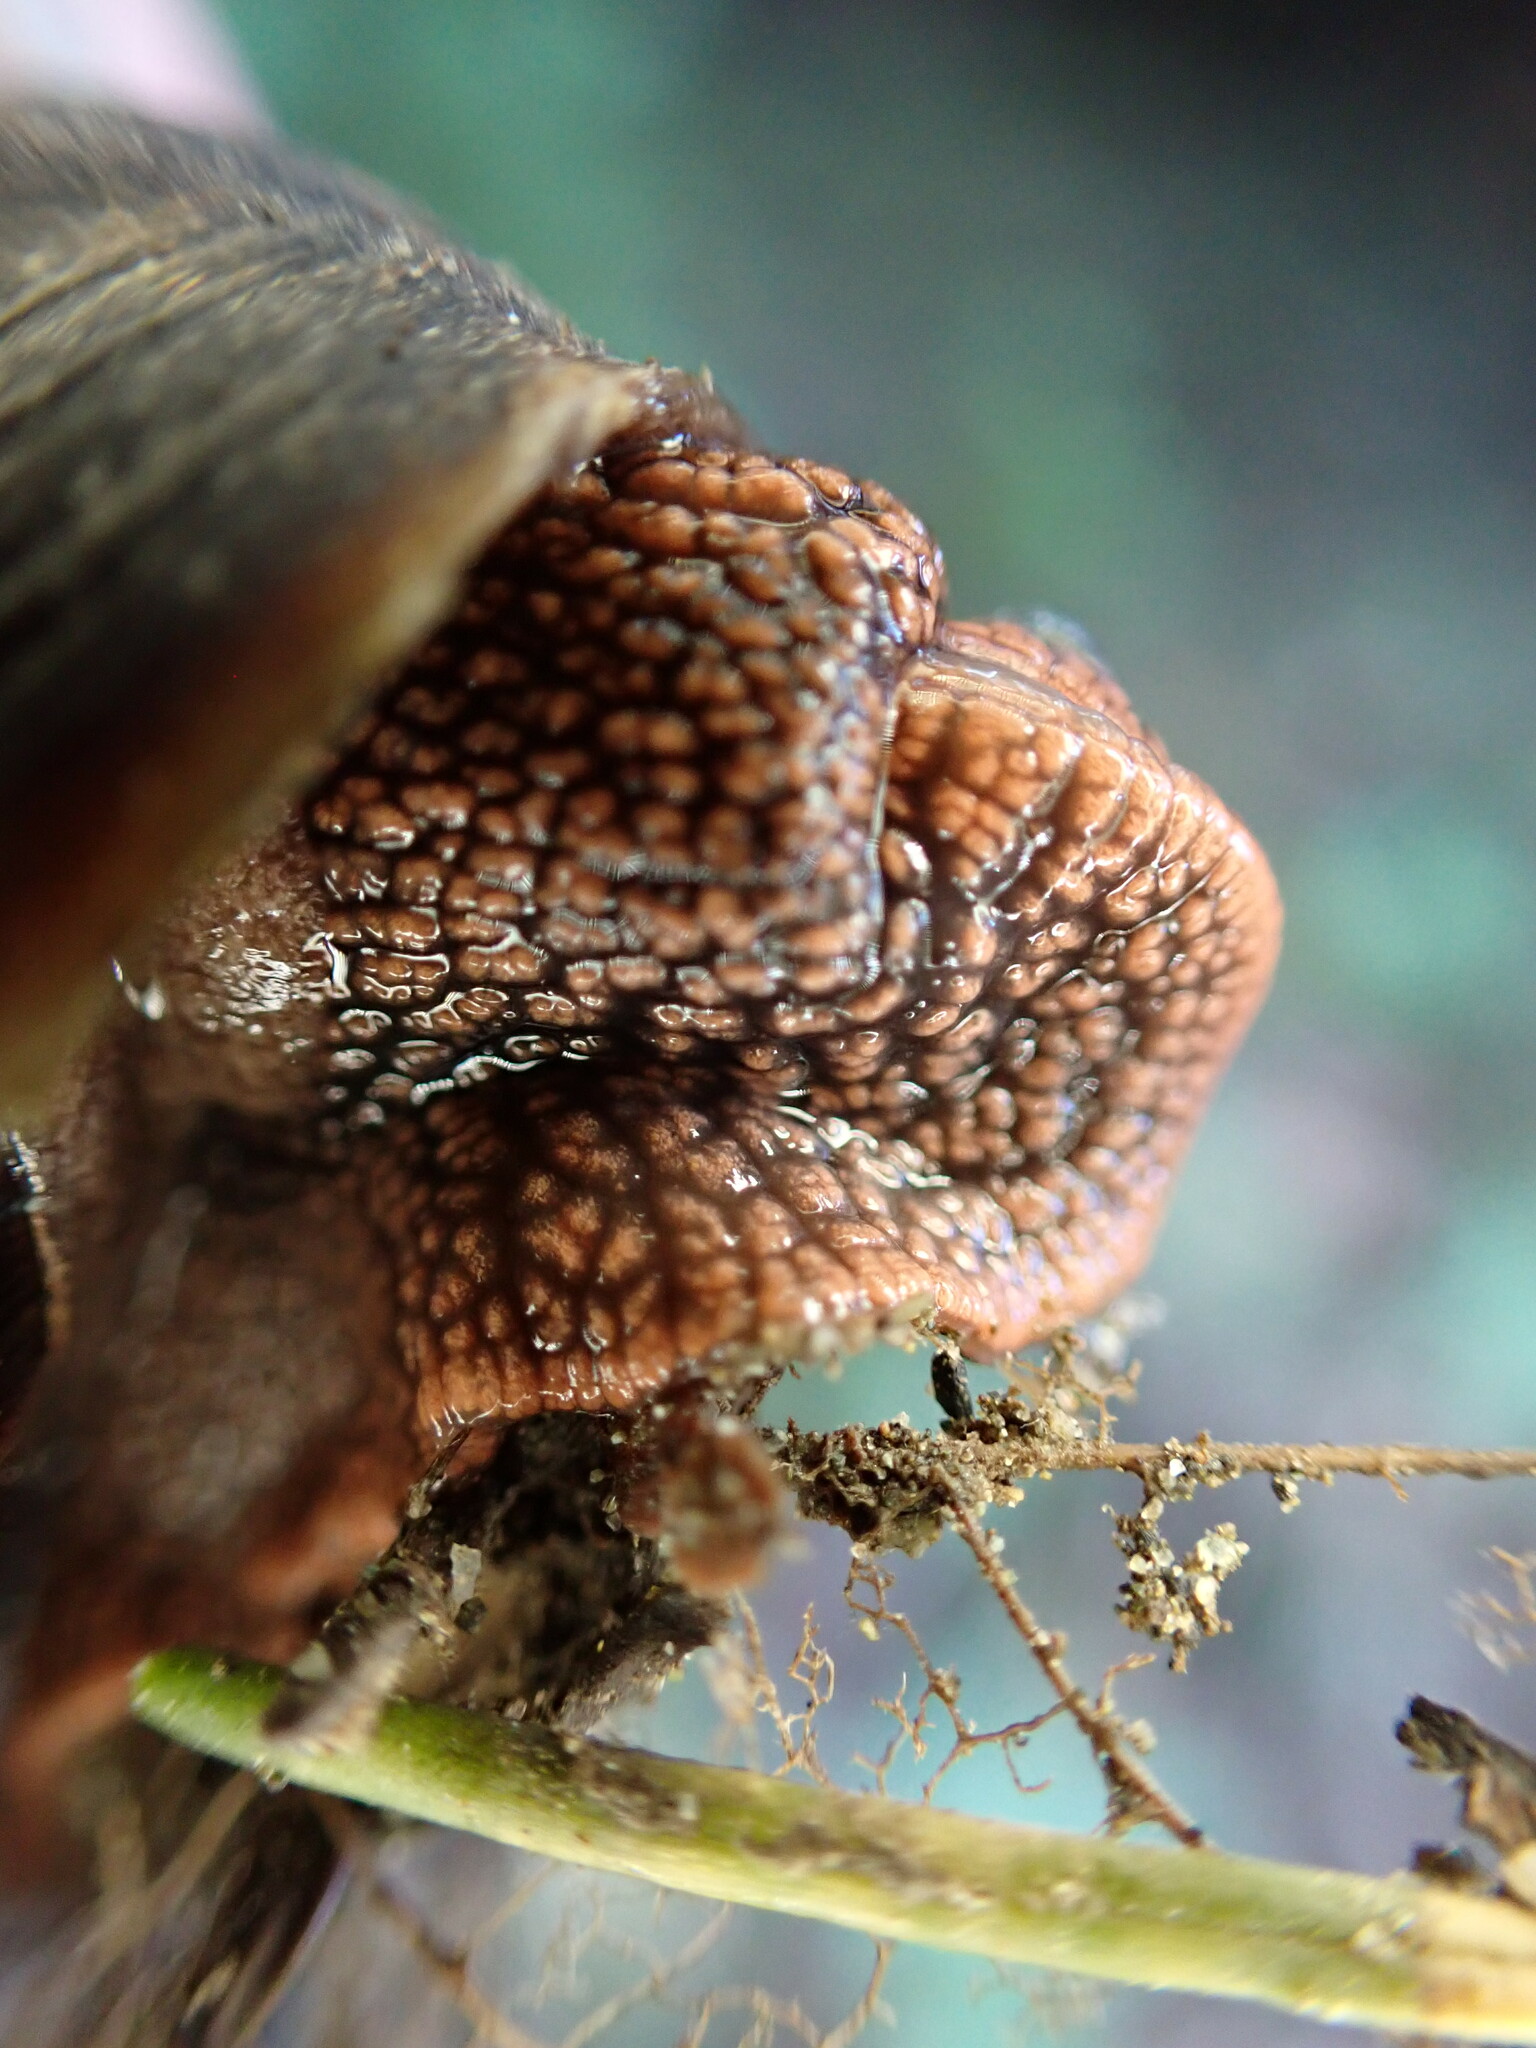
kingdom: Animalia
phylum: Mollusca
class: Gastropoda
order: Stylommatophora
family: Xanthonychidae
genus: Monadenia
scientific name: Monadenia fidelis
